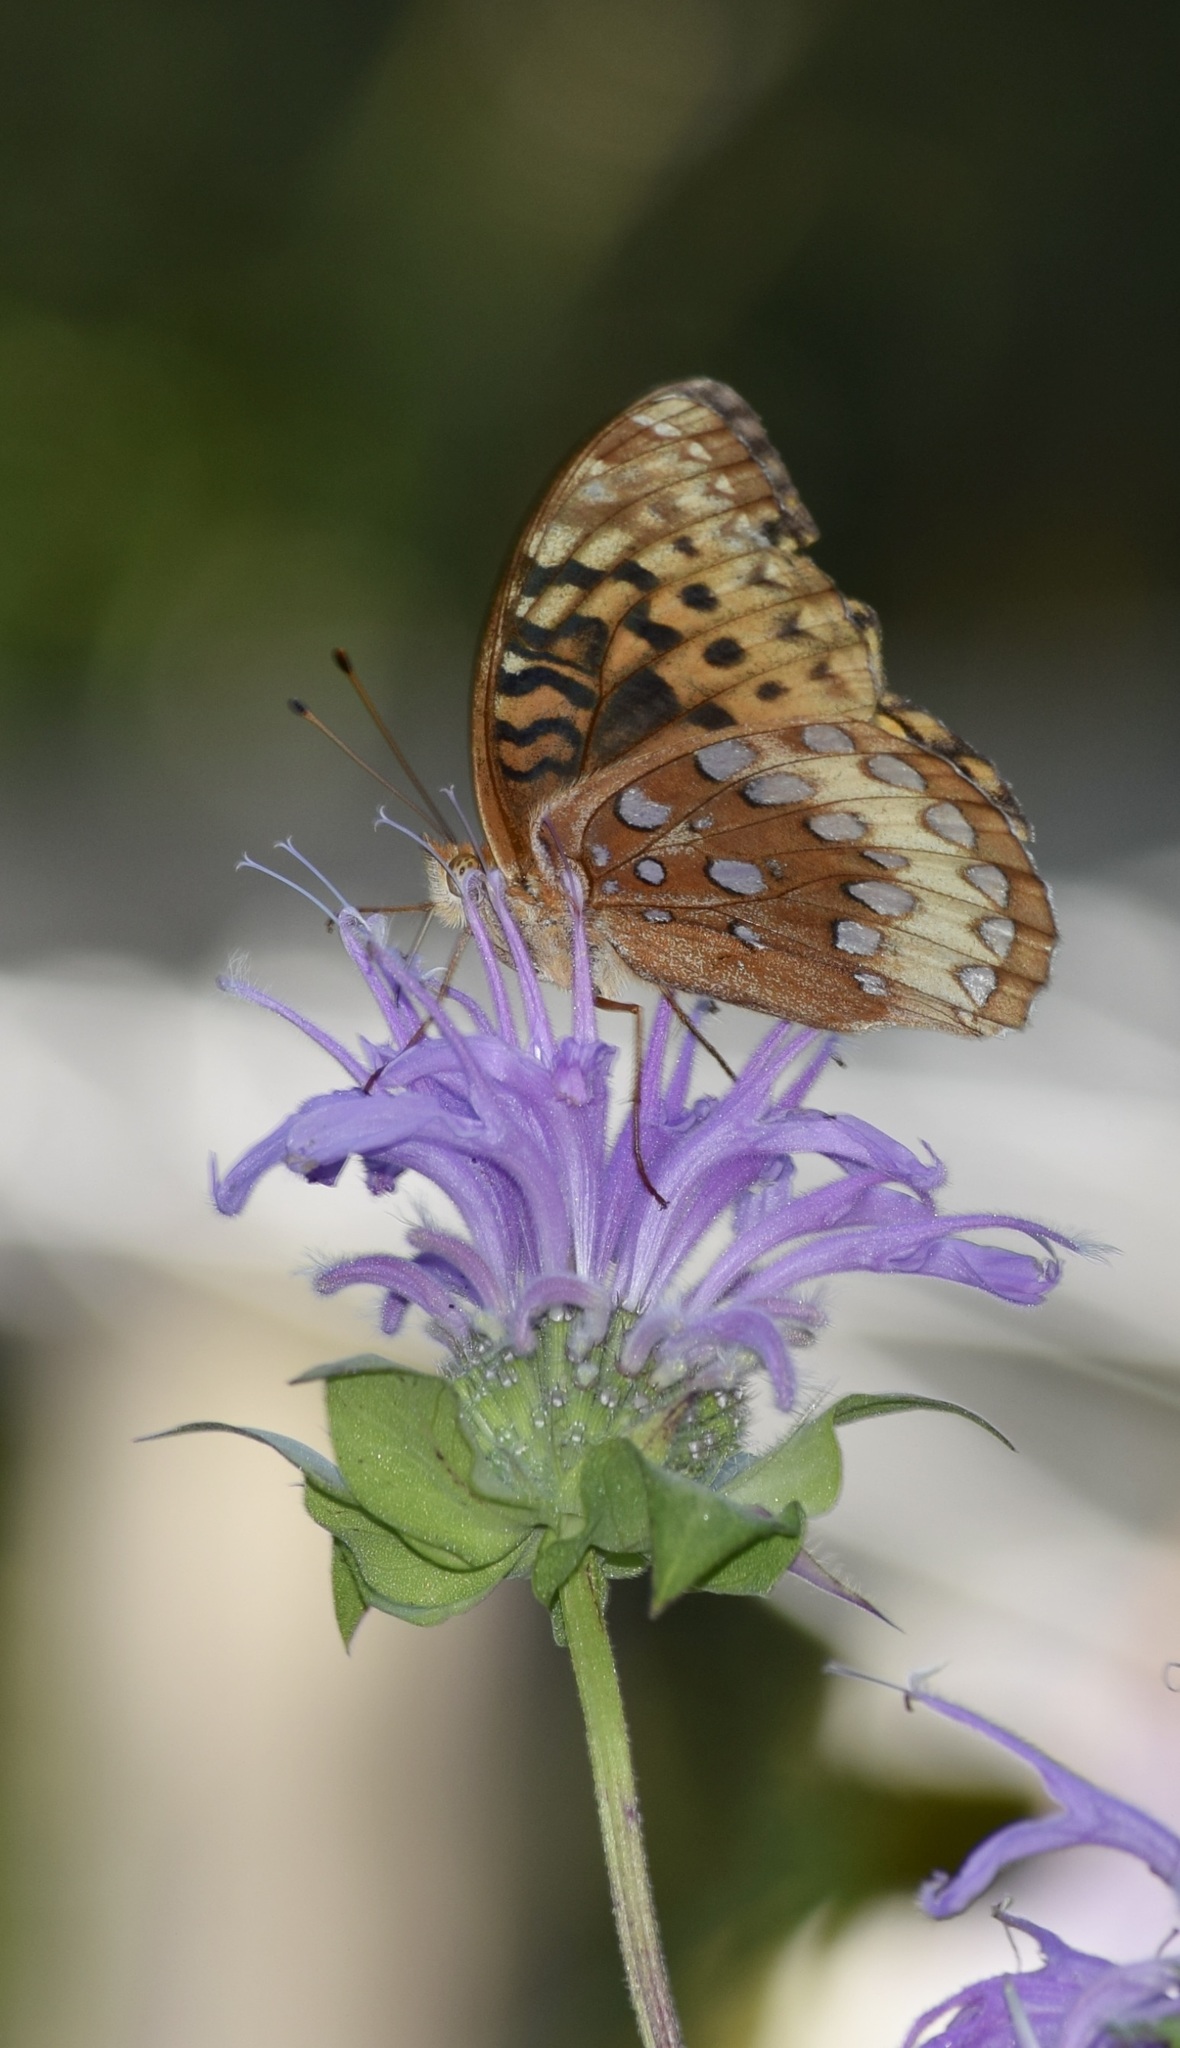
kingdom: Animalia
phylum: Arthropoda
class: Insecta
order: Lepidoptera
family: Nymphalidae
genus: Speyeria
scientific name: Speyeria cybele
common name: Great spangled fritillary
